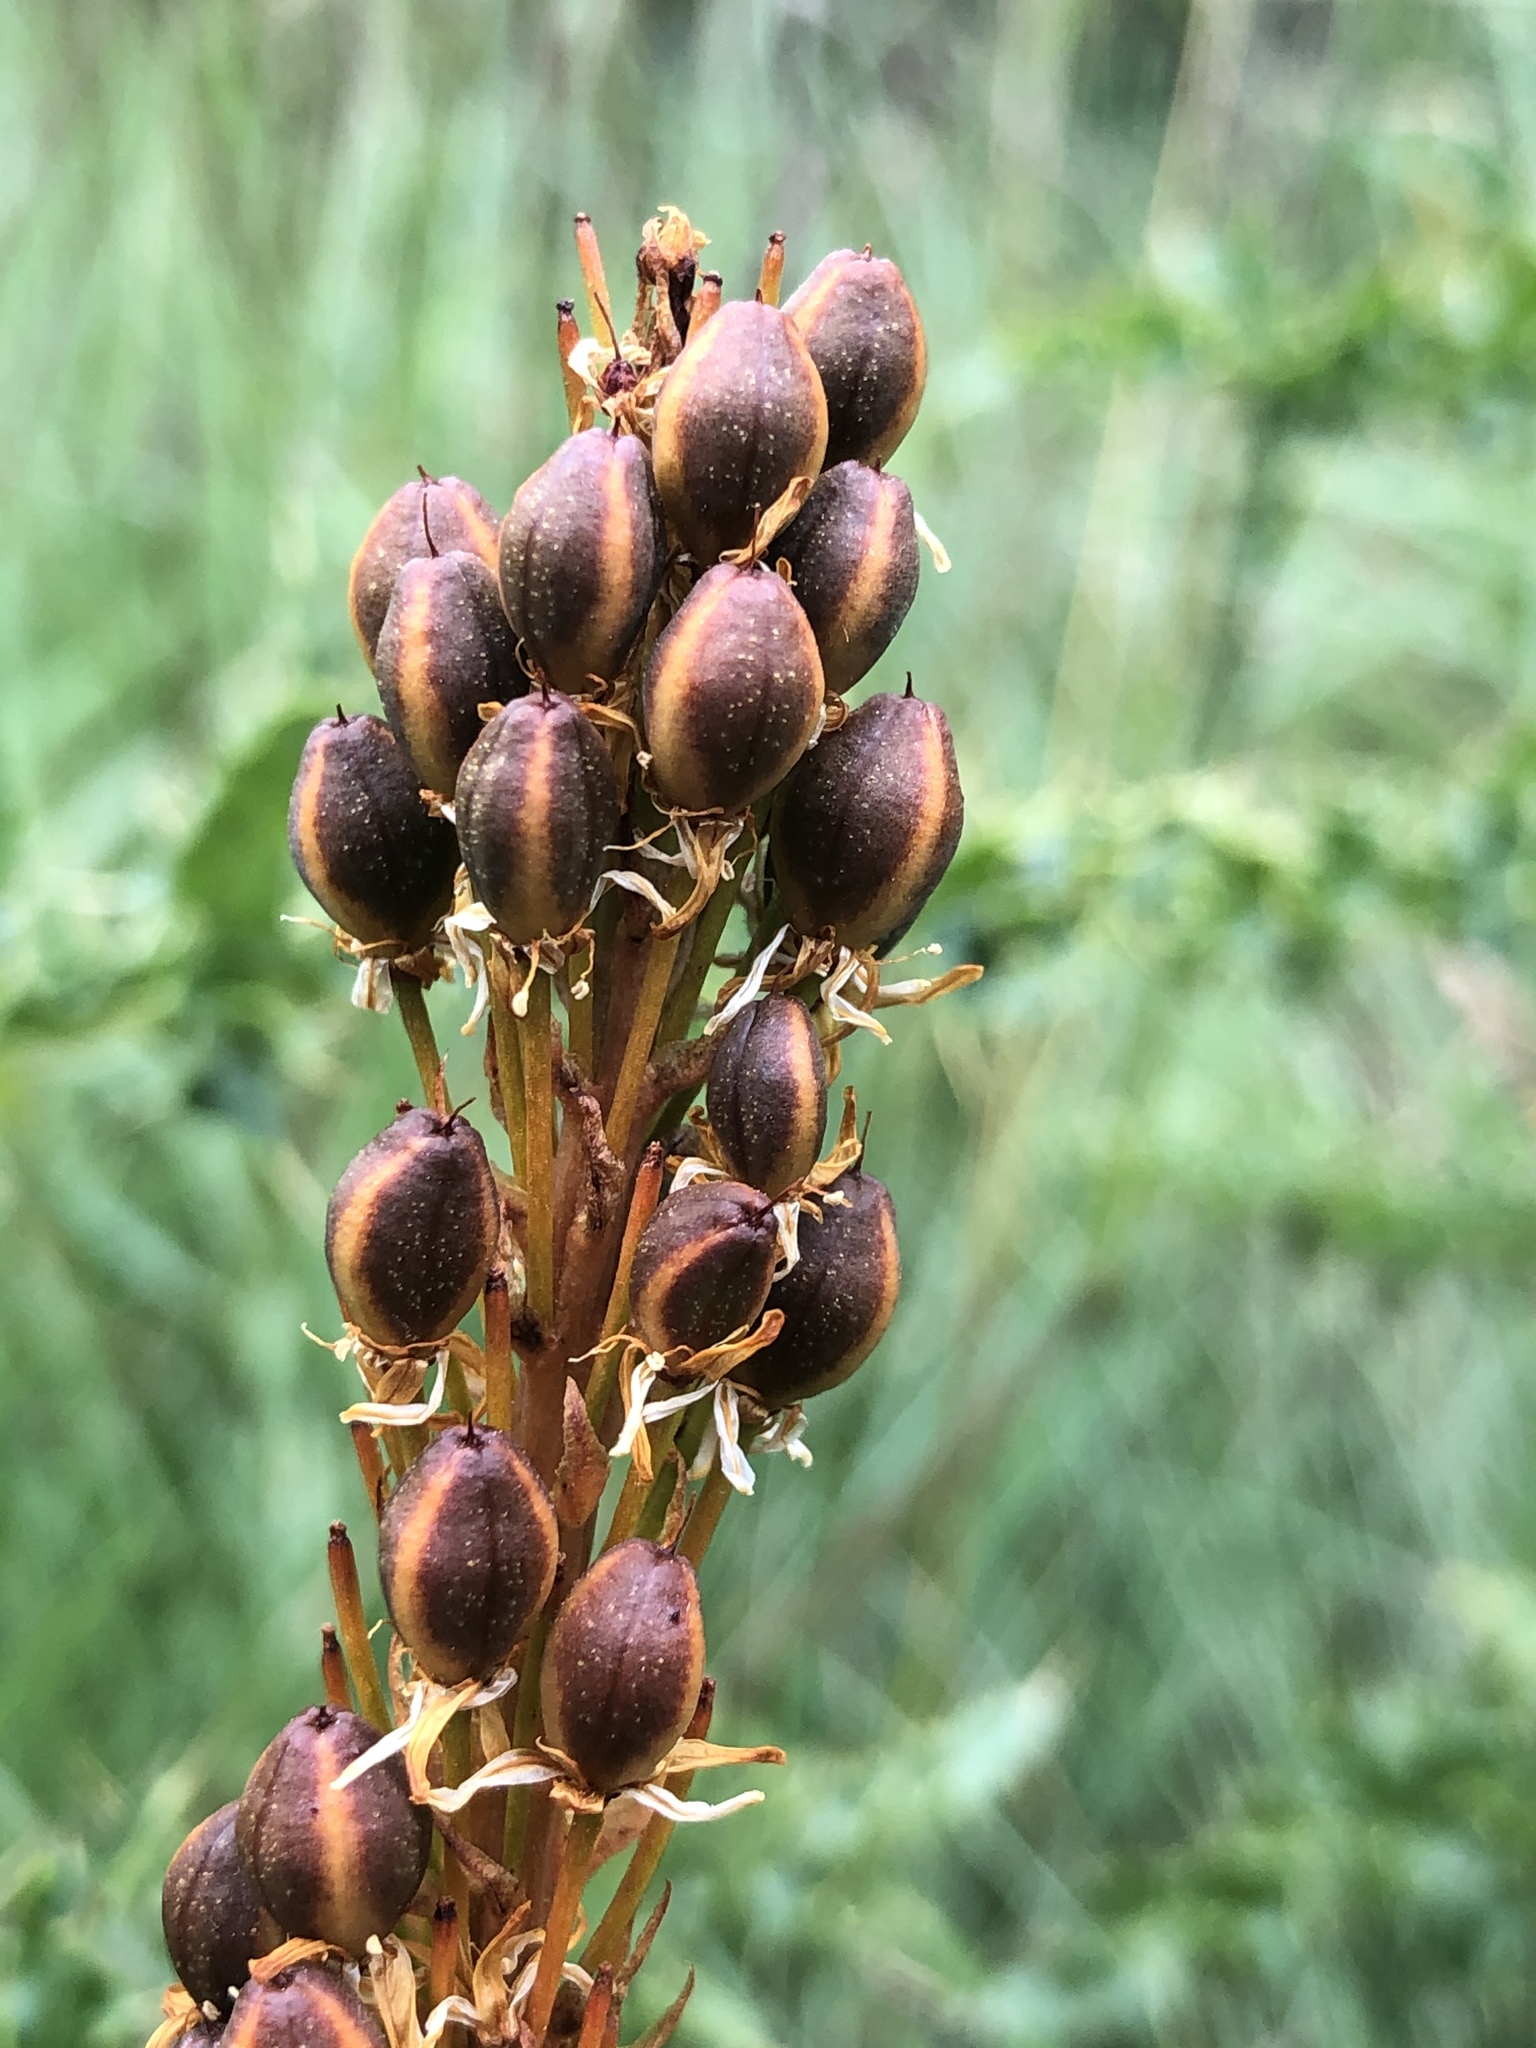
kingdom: Plantae
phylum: Tracheophyta
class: Liliopsida
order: Asparagales
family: Asphodelaceae
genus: Bulbinella
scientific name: Bulbinella angustifolia
